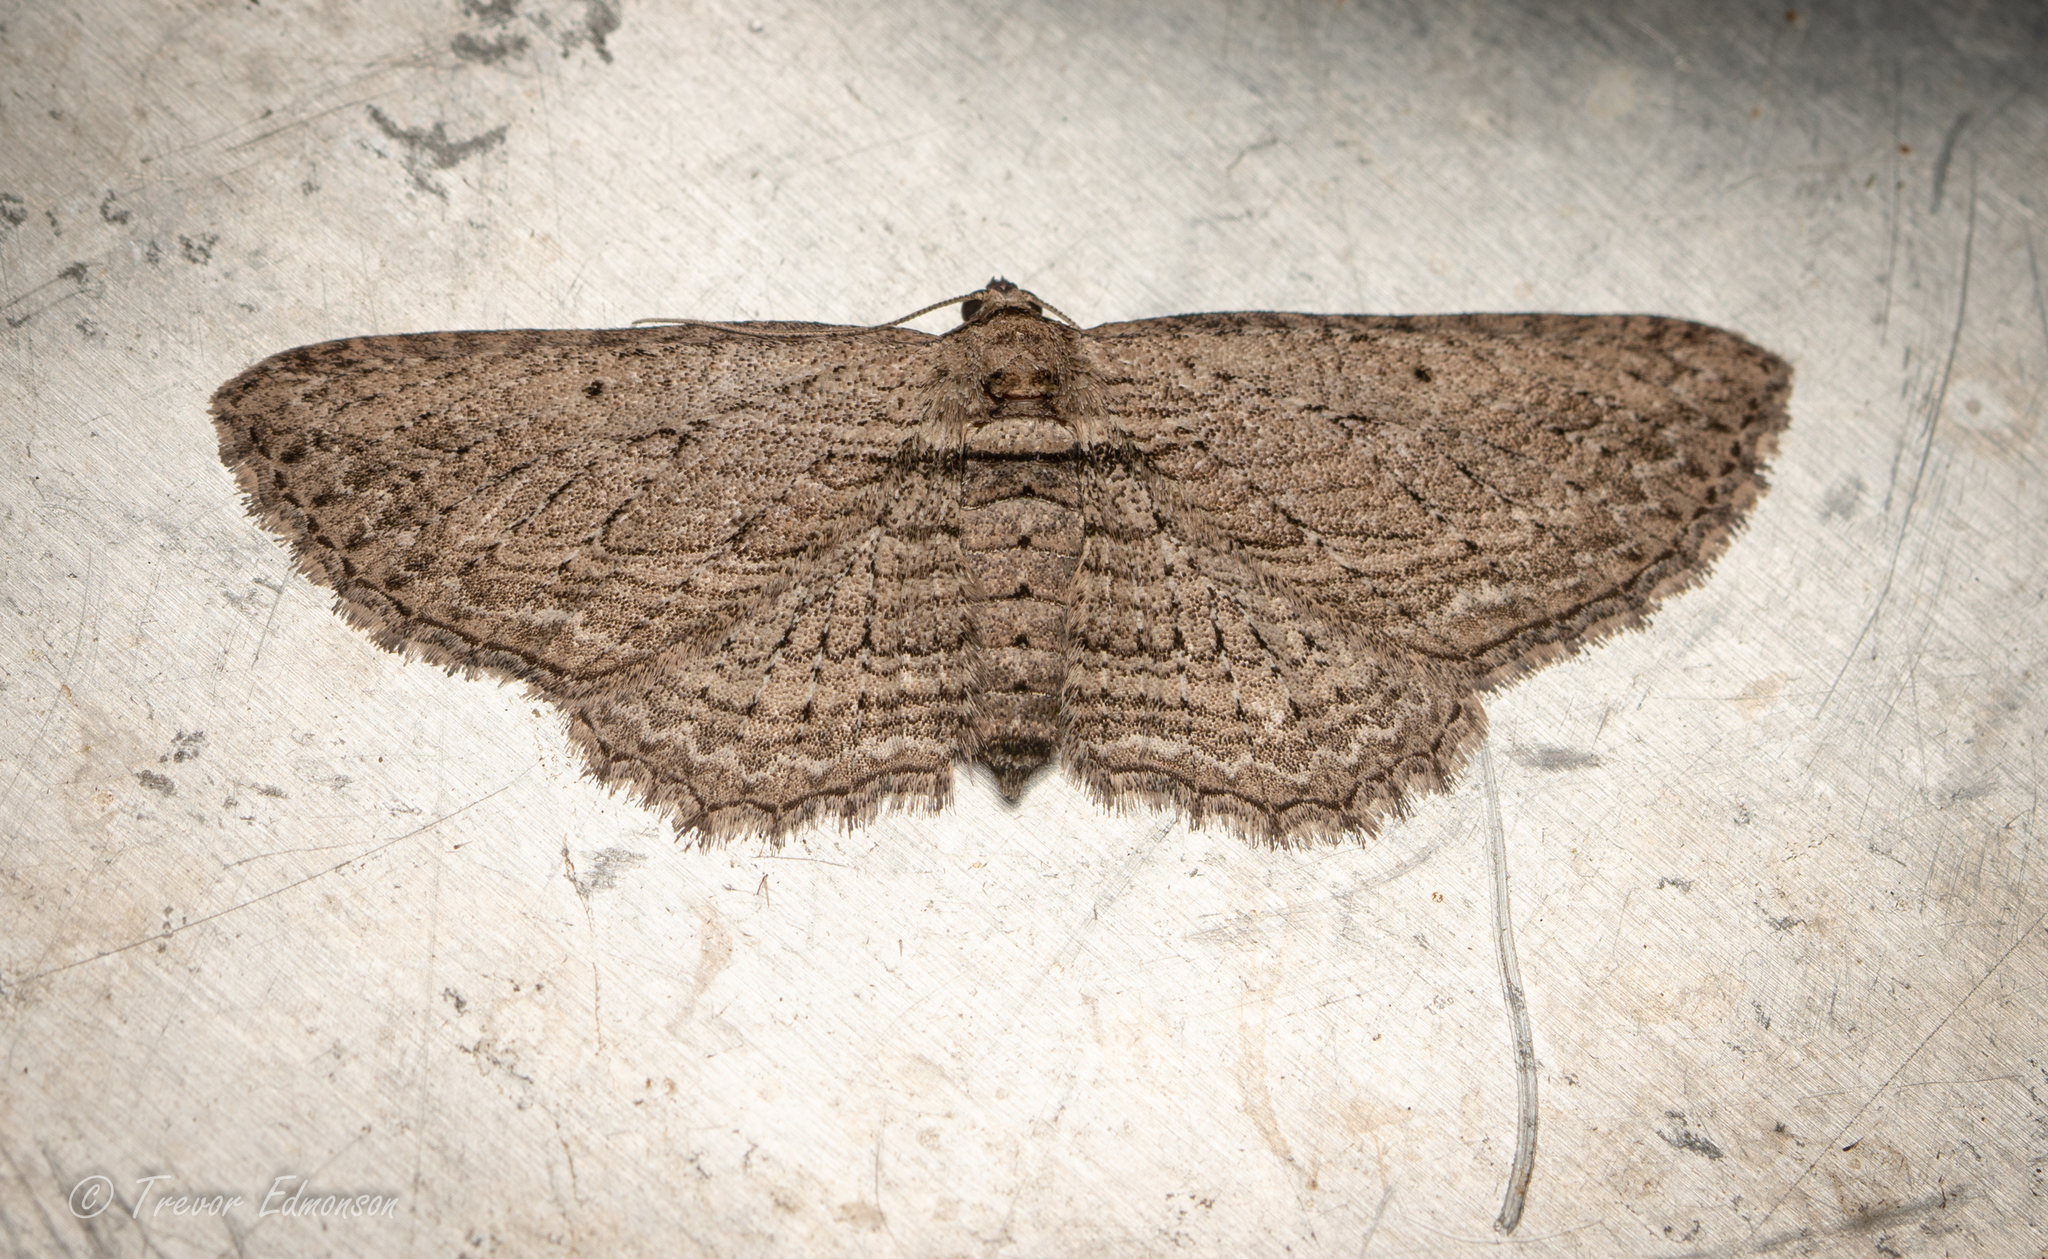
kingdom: Animalia
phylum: Arthropoda
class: Insecta
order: Lepidoptera
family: Geometridae
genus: Horisme
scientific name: Horisme intestinata
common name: Brown bark carpet
